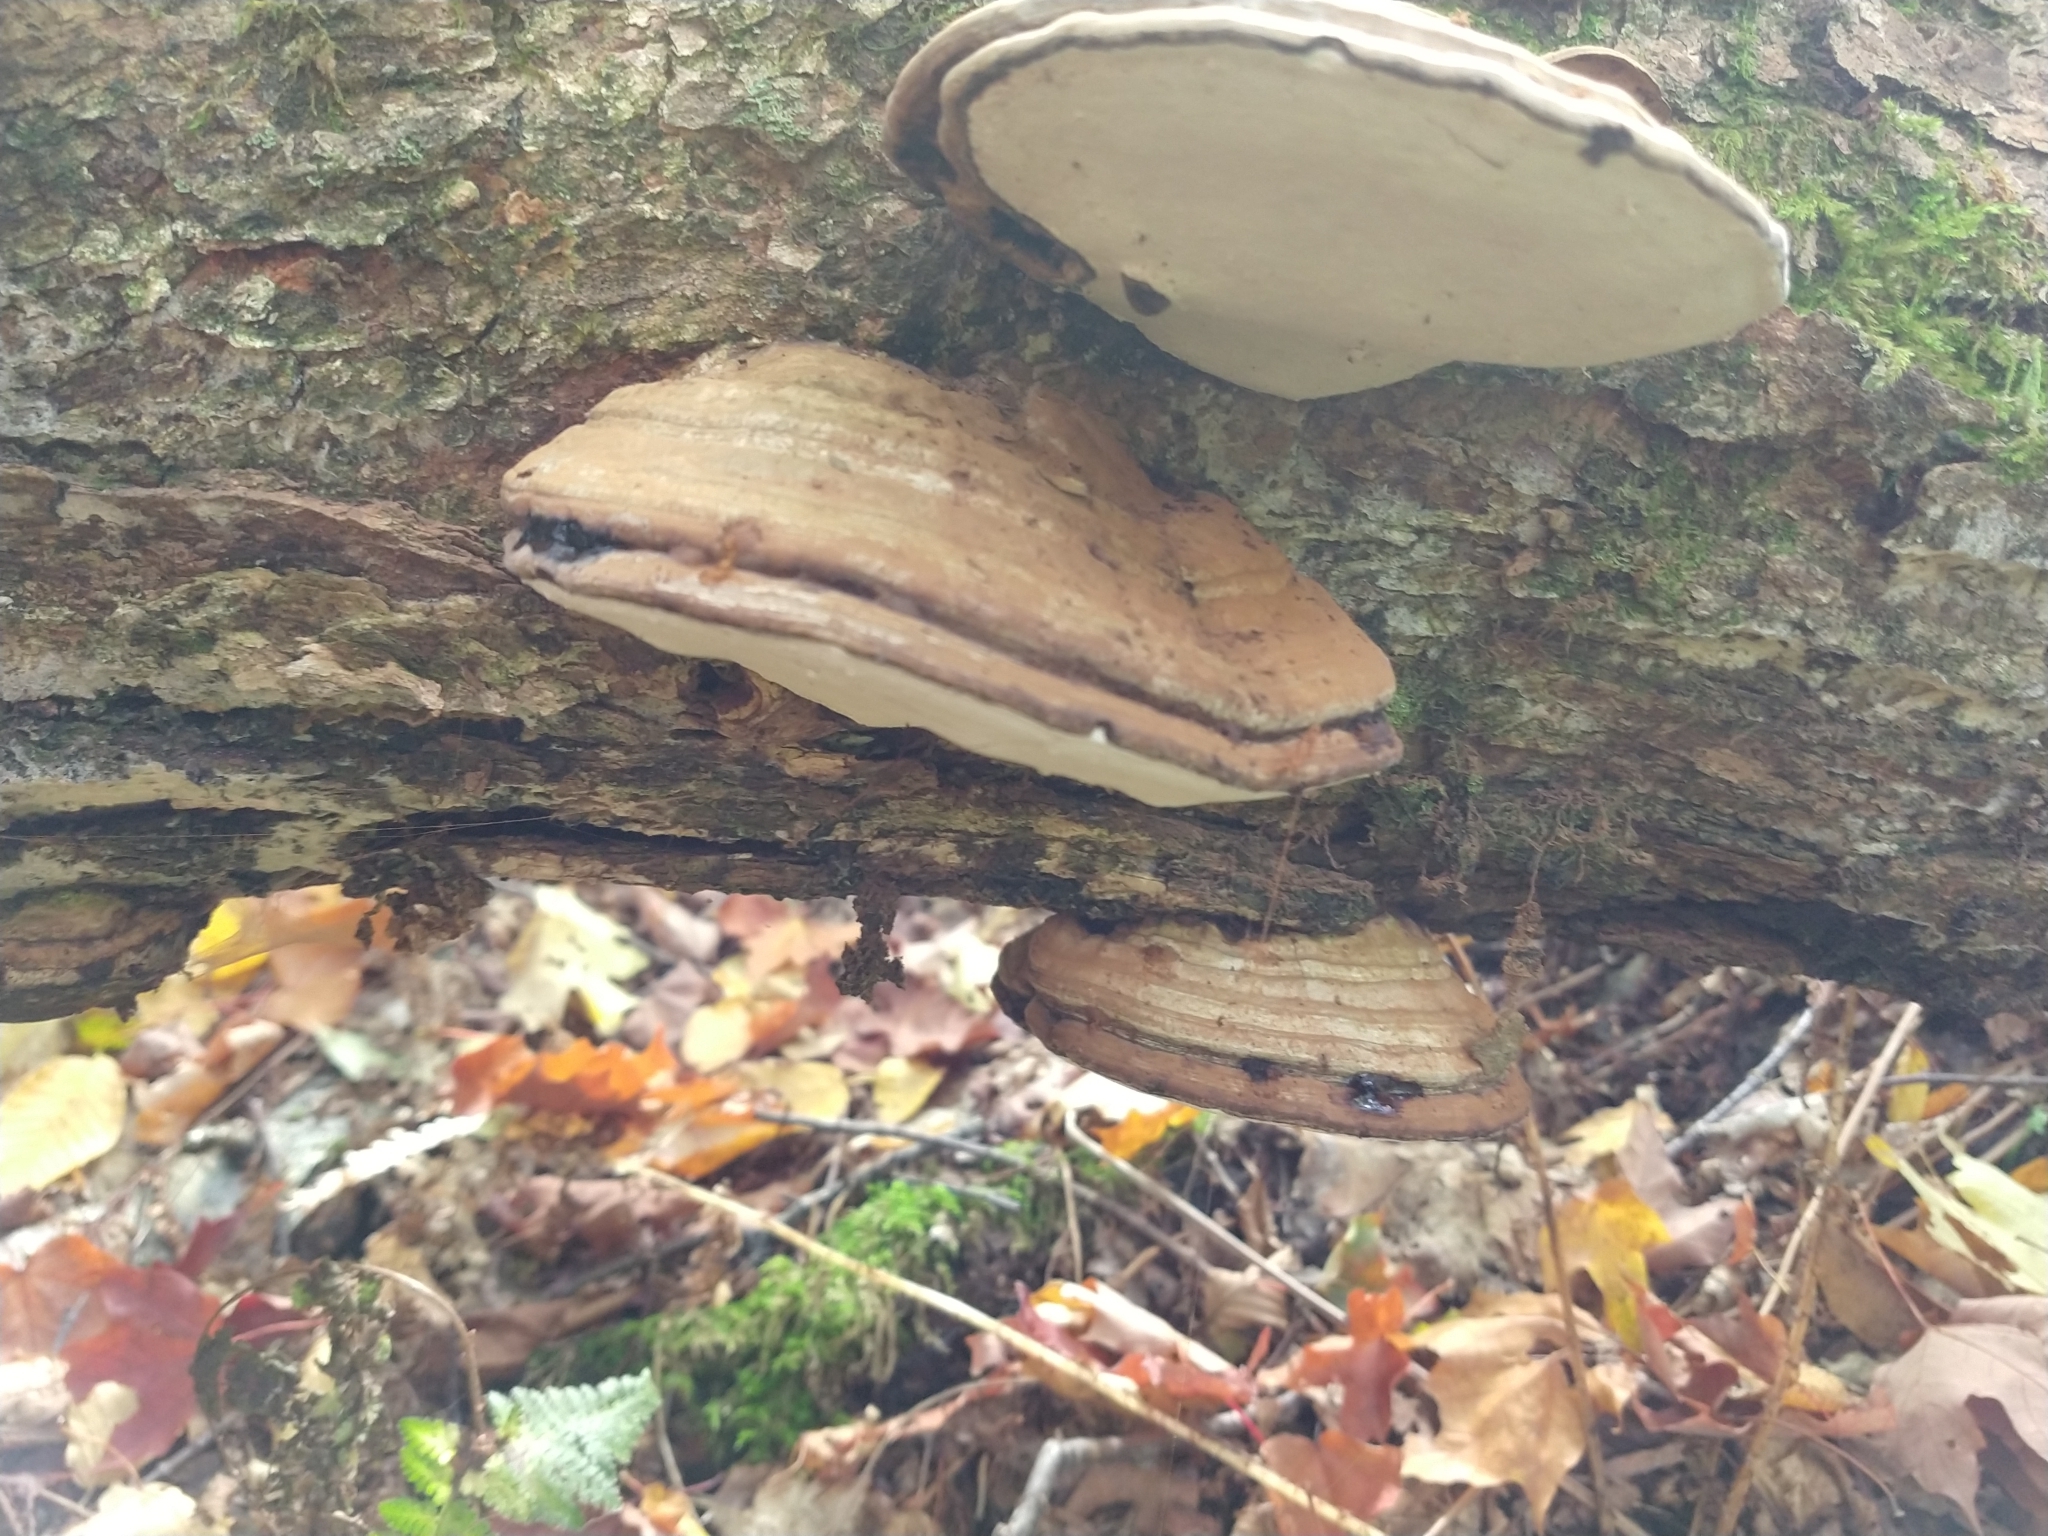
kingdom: Fungi
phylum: Basidiomycota
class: Agaricomycetes
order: Polyporales
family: Polyporaceae
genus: Ganoderma
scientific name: Ganoderma applanatum
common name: Artist's bracket
